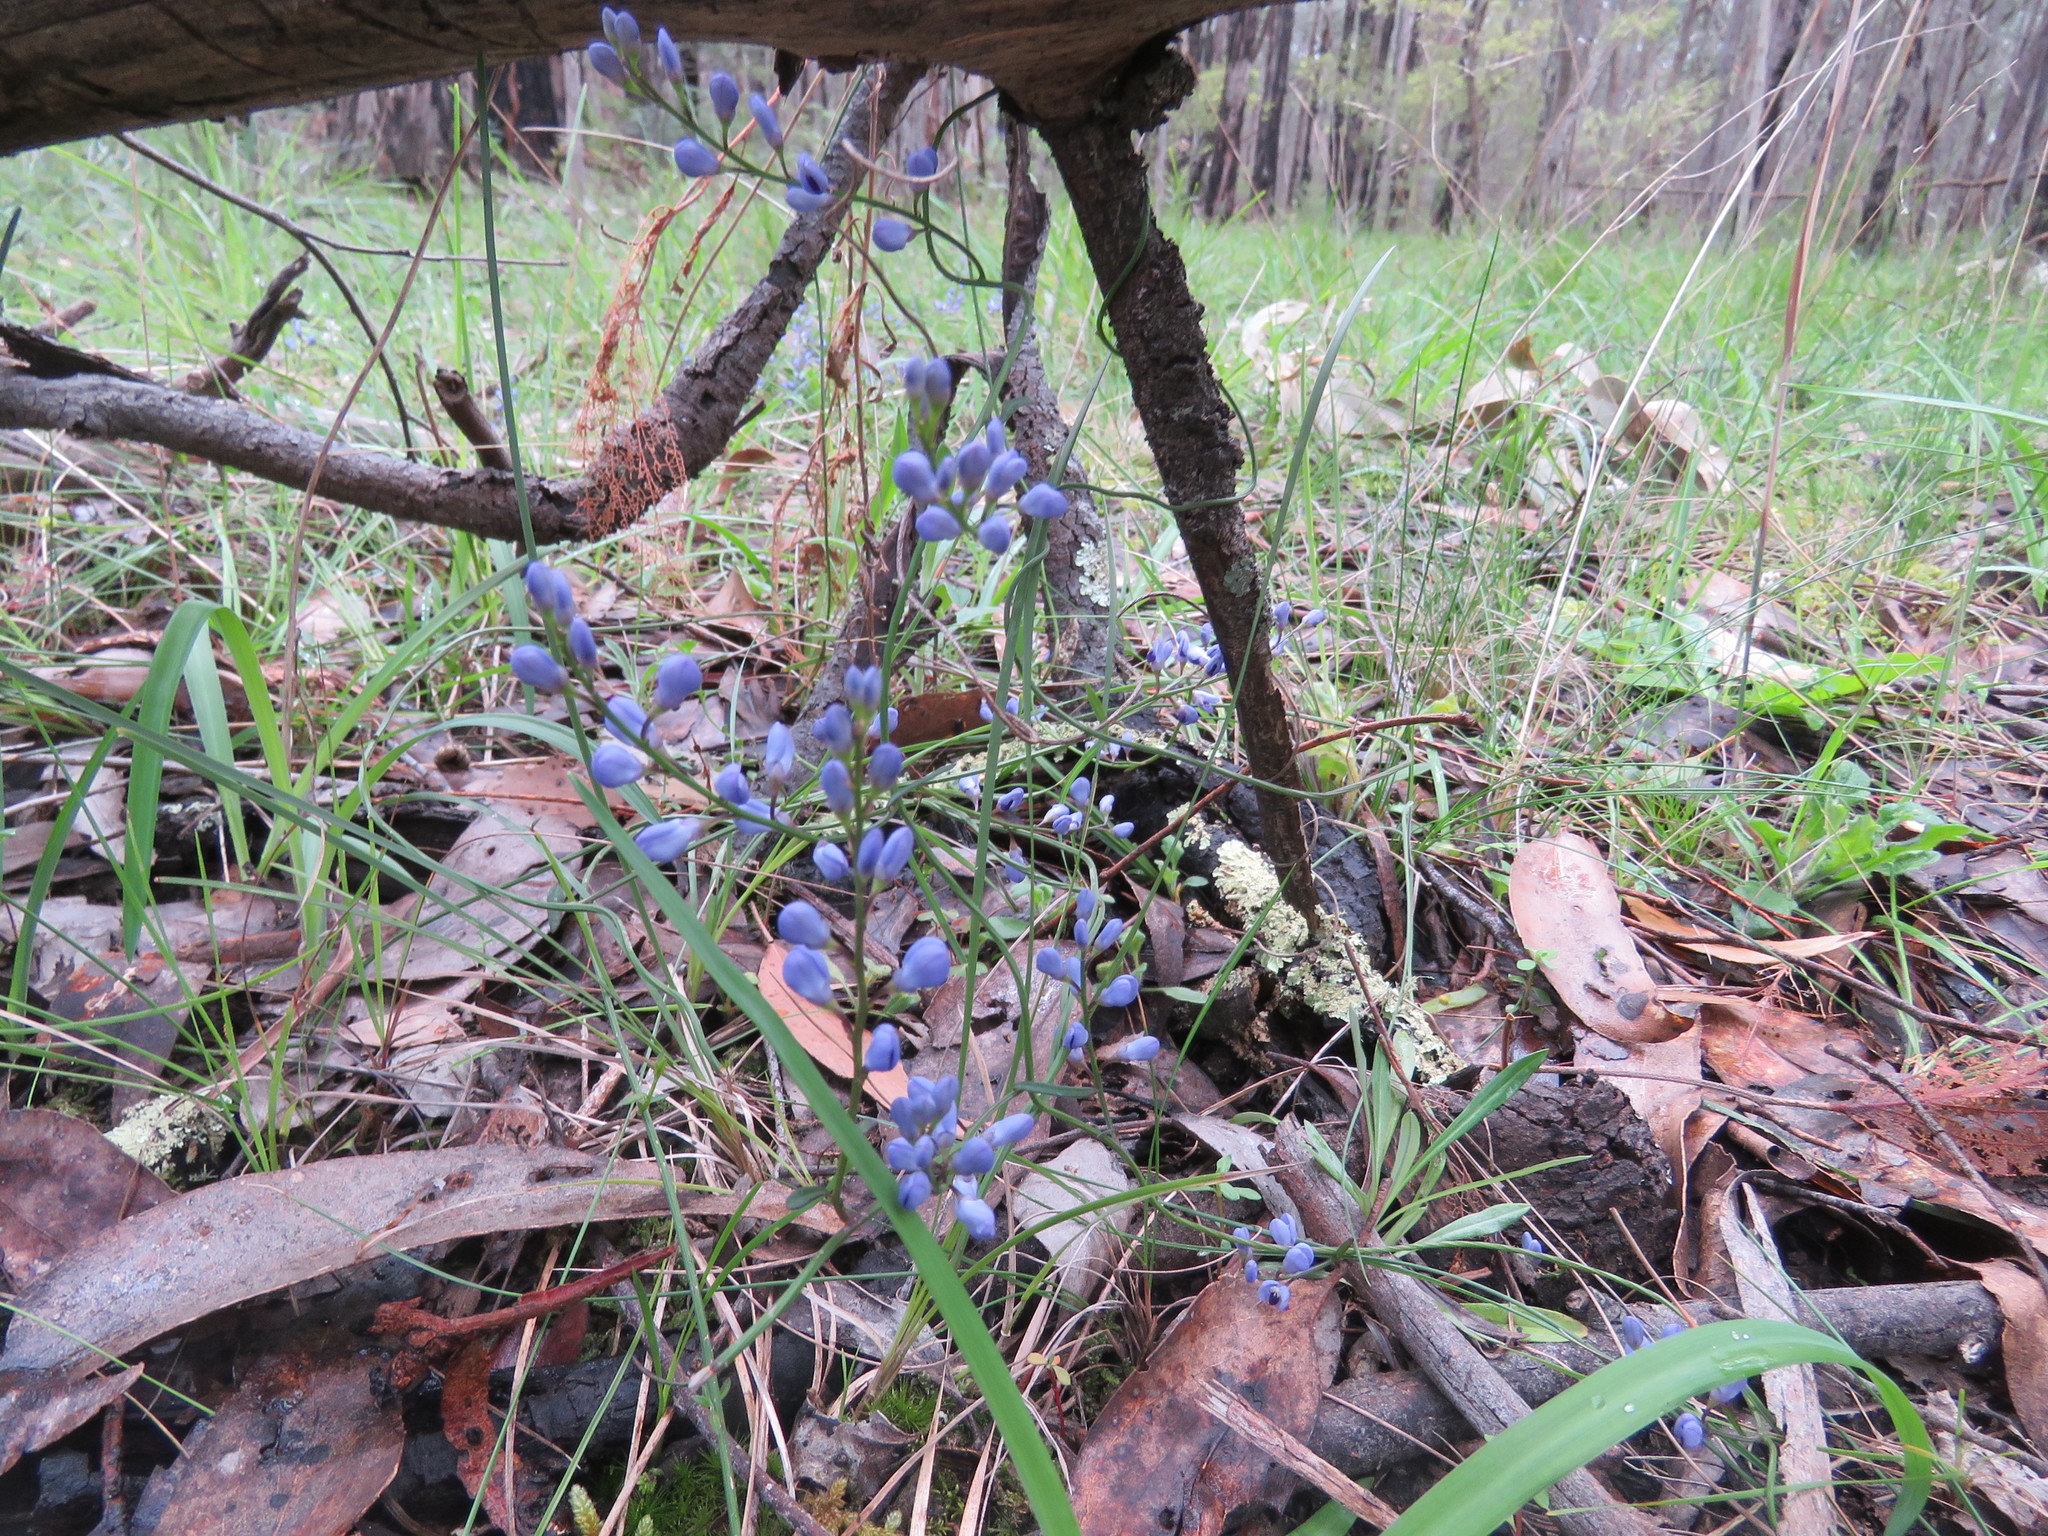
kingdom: Plantae
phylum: Tracheophyta
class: Magnoliopsida
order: Fabales
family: Polygalaceae
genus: Comesperma
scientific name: Comesperma volubile
